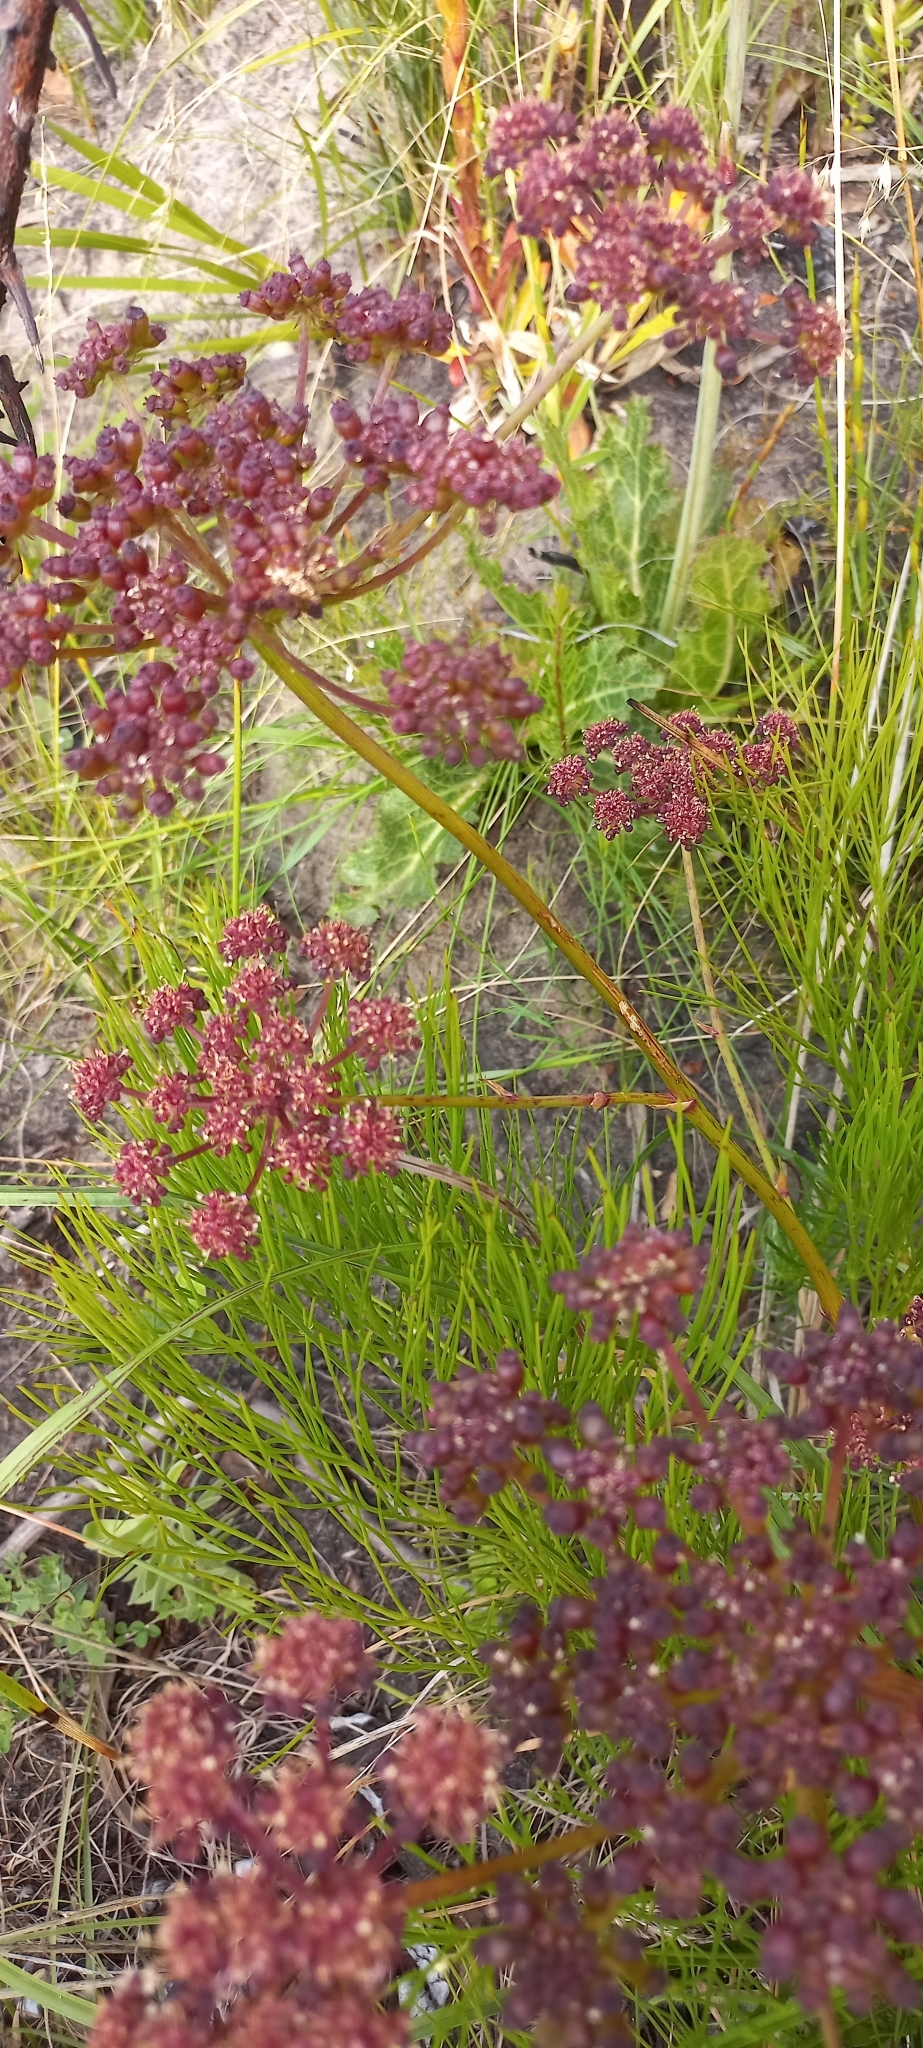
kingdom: Plantae
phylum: Tracheophyta
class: Magnoliopsida
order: Apiales
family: Apiaceae
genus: Nanobubon
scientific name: Nanobubon strictum
